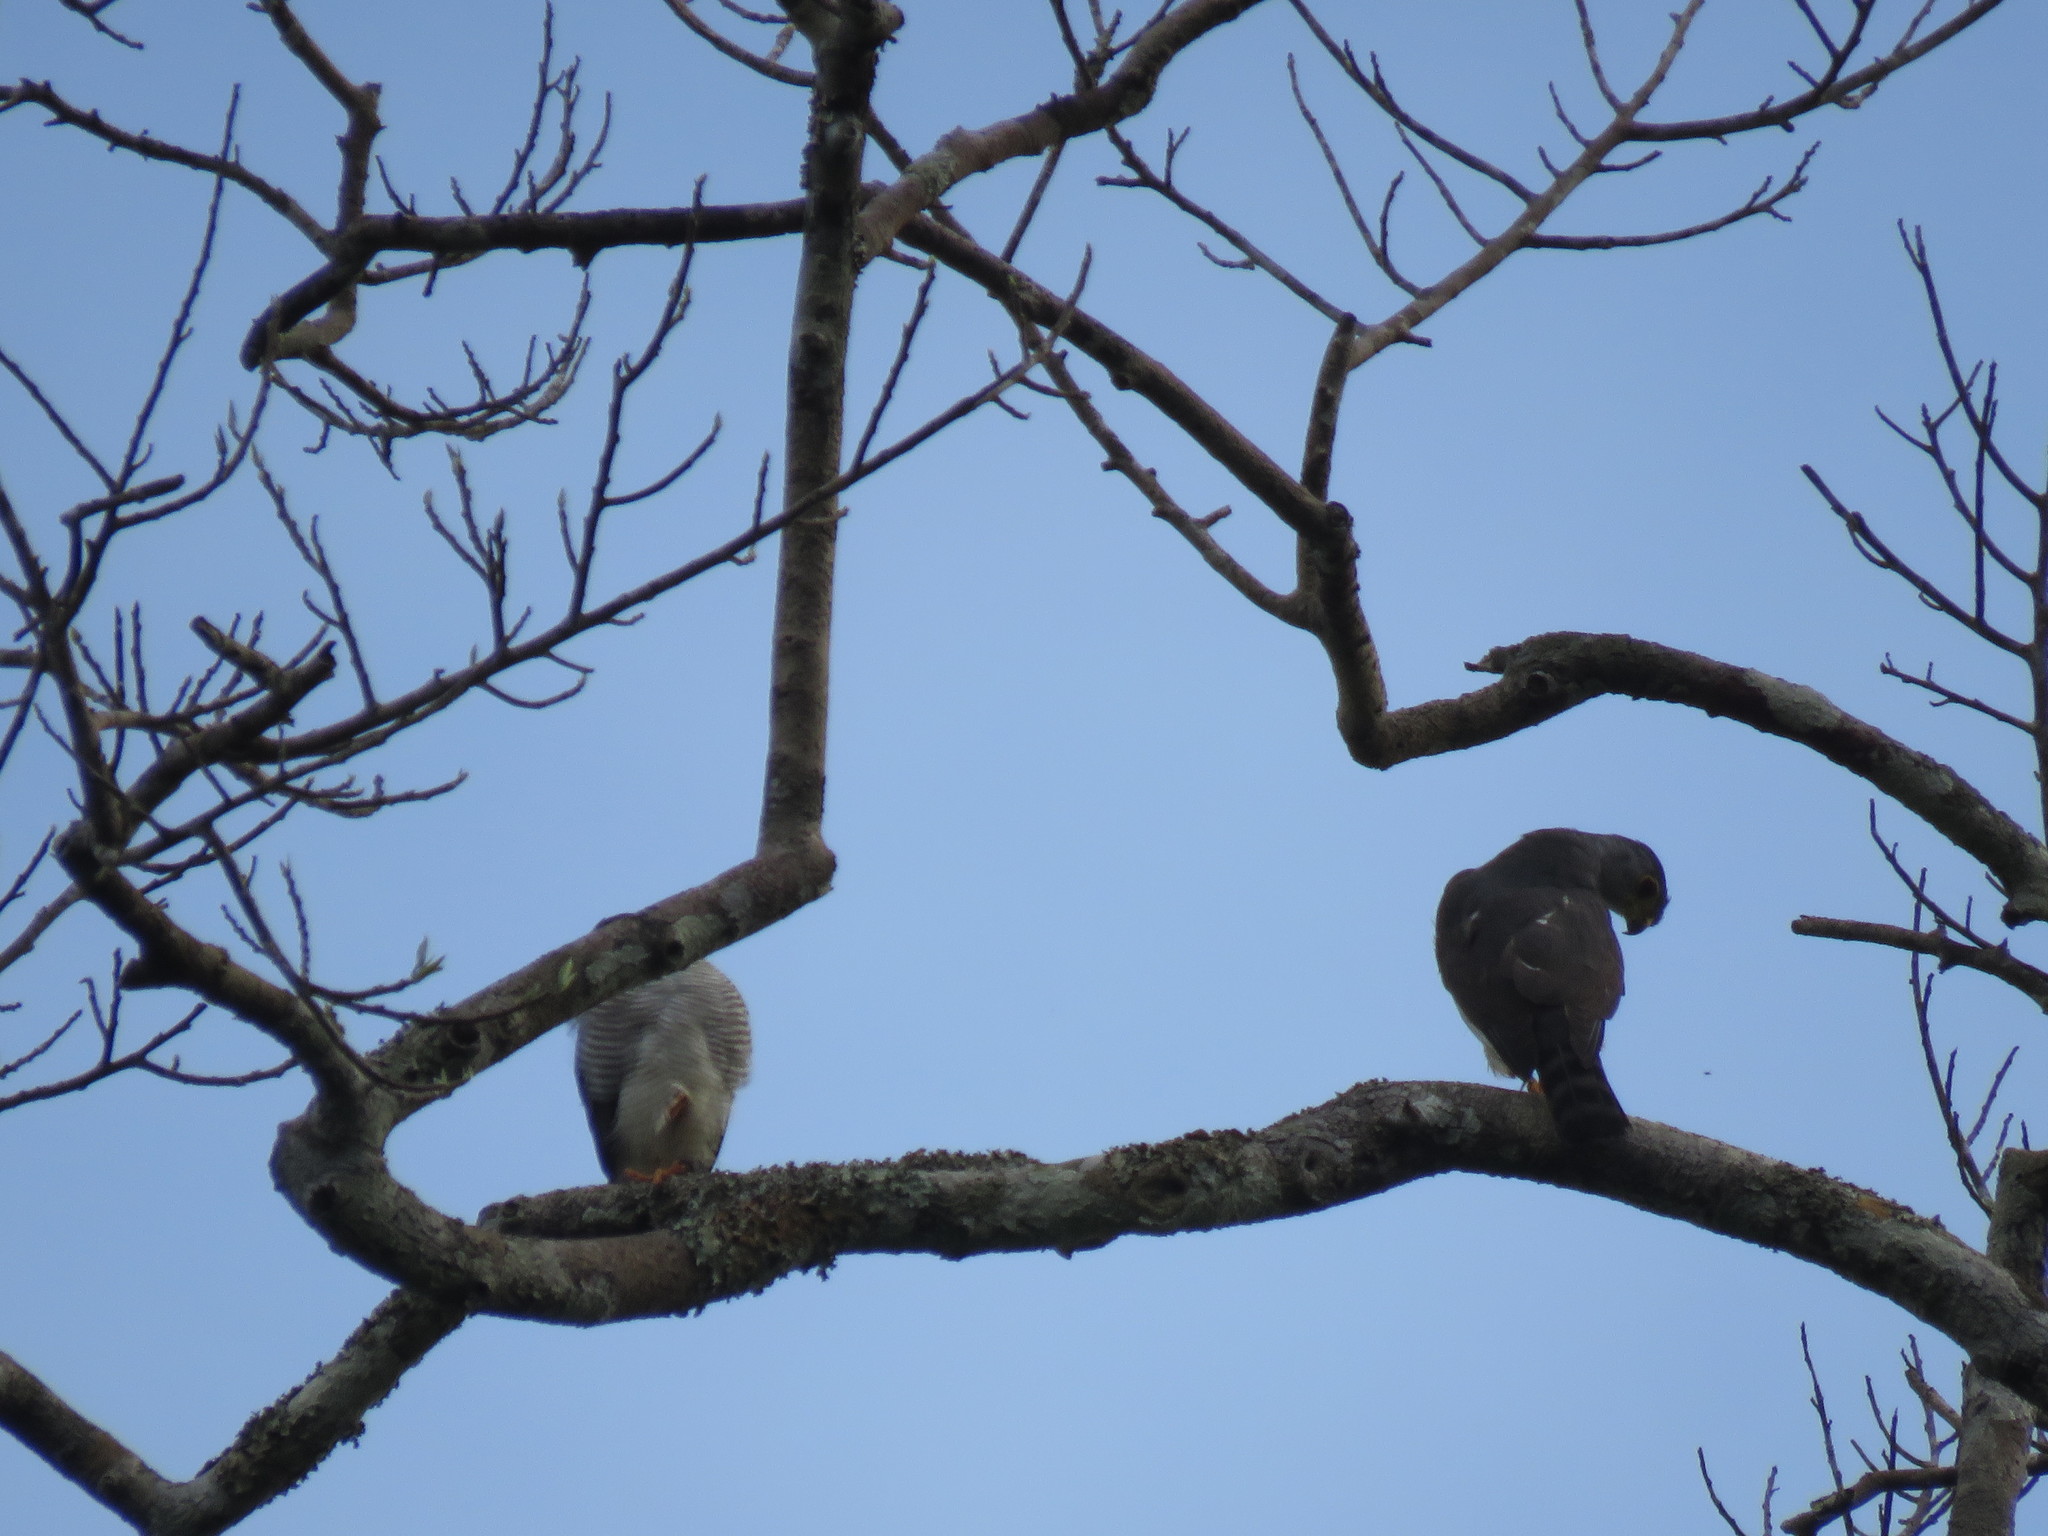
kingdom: Animalia
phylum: Chordata
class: Aves
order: Accipitriformes
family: Accipitridae
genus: Accipiter
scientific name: Accipiter superciliosus
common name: Tiny hawk
